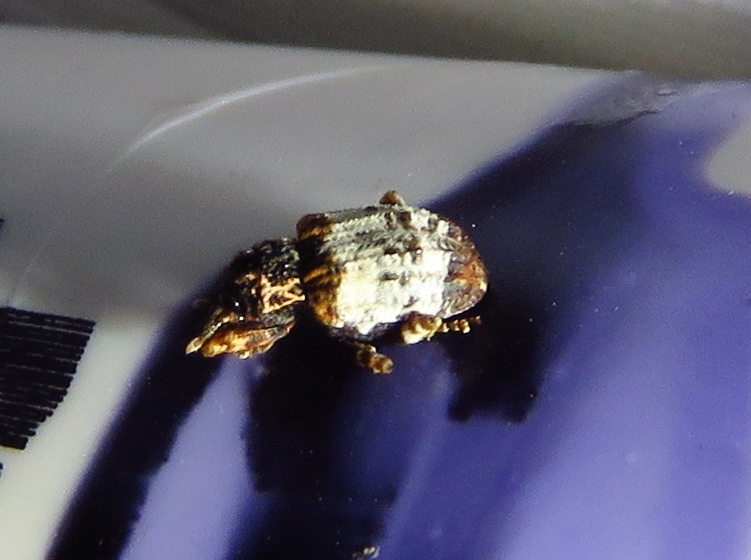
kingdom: Animalia
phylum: Arthropoda
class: Insecta
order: Coleoptera
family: Curculionidae
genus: Conotrachelus
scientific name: Conotrachelus leucophaeatus
